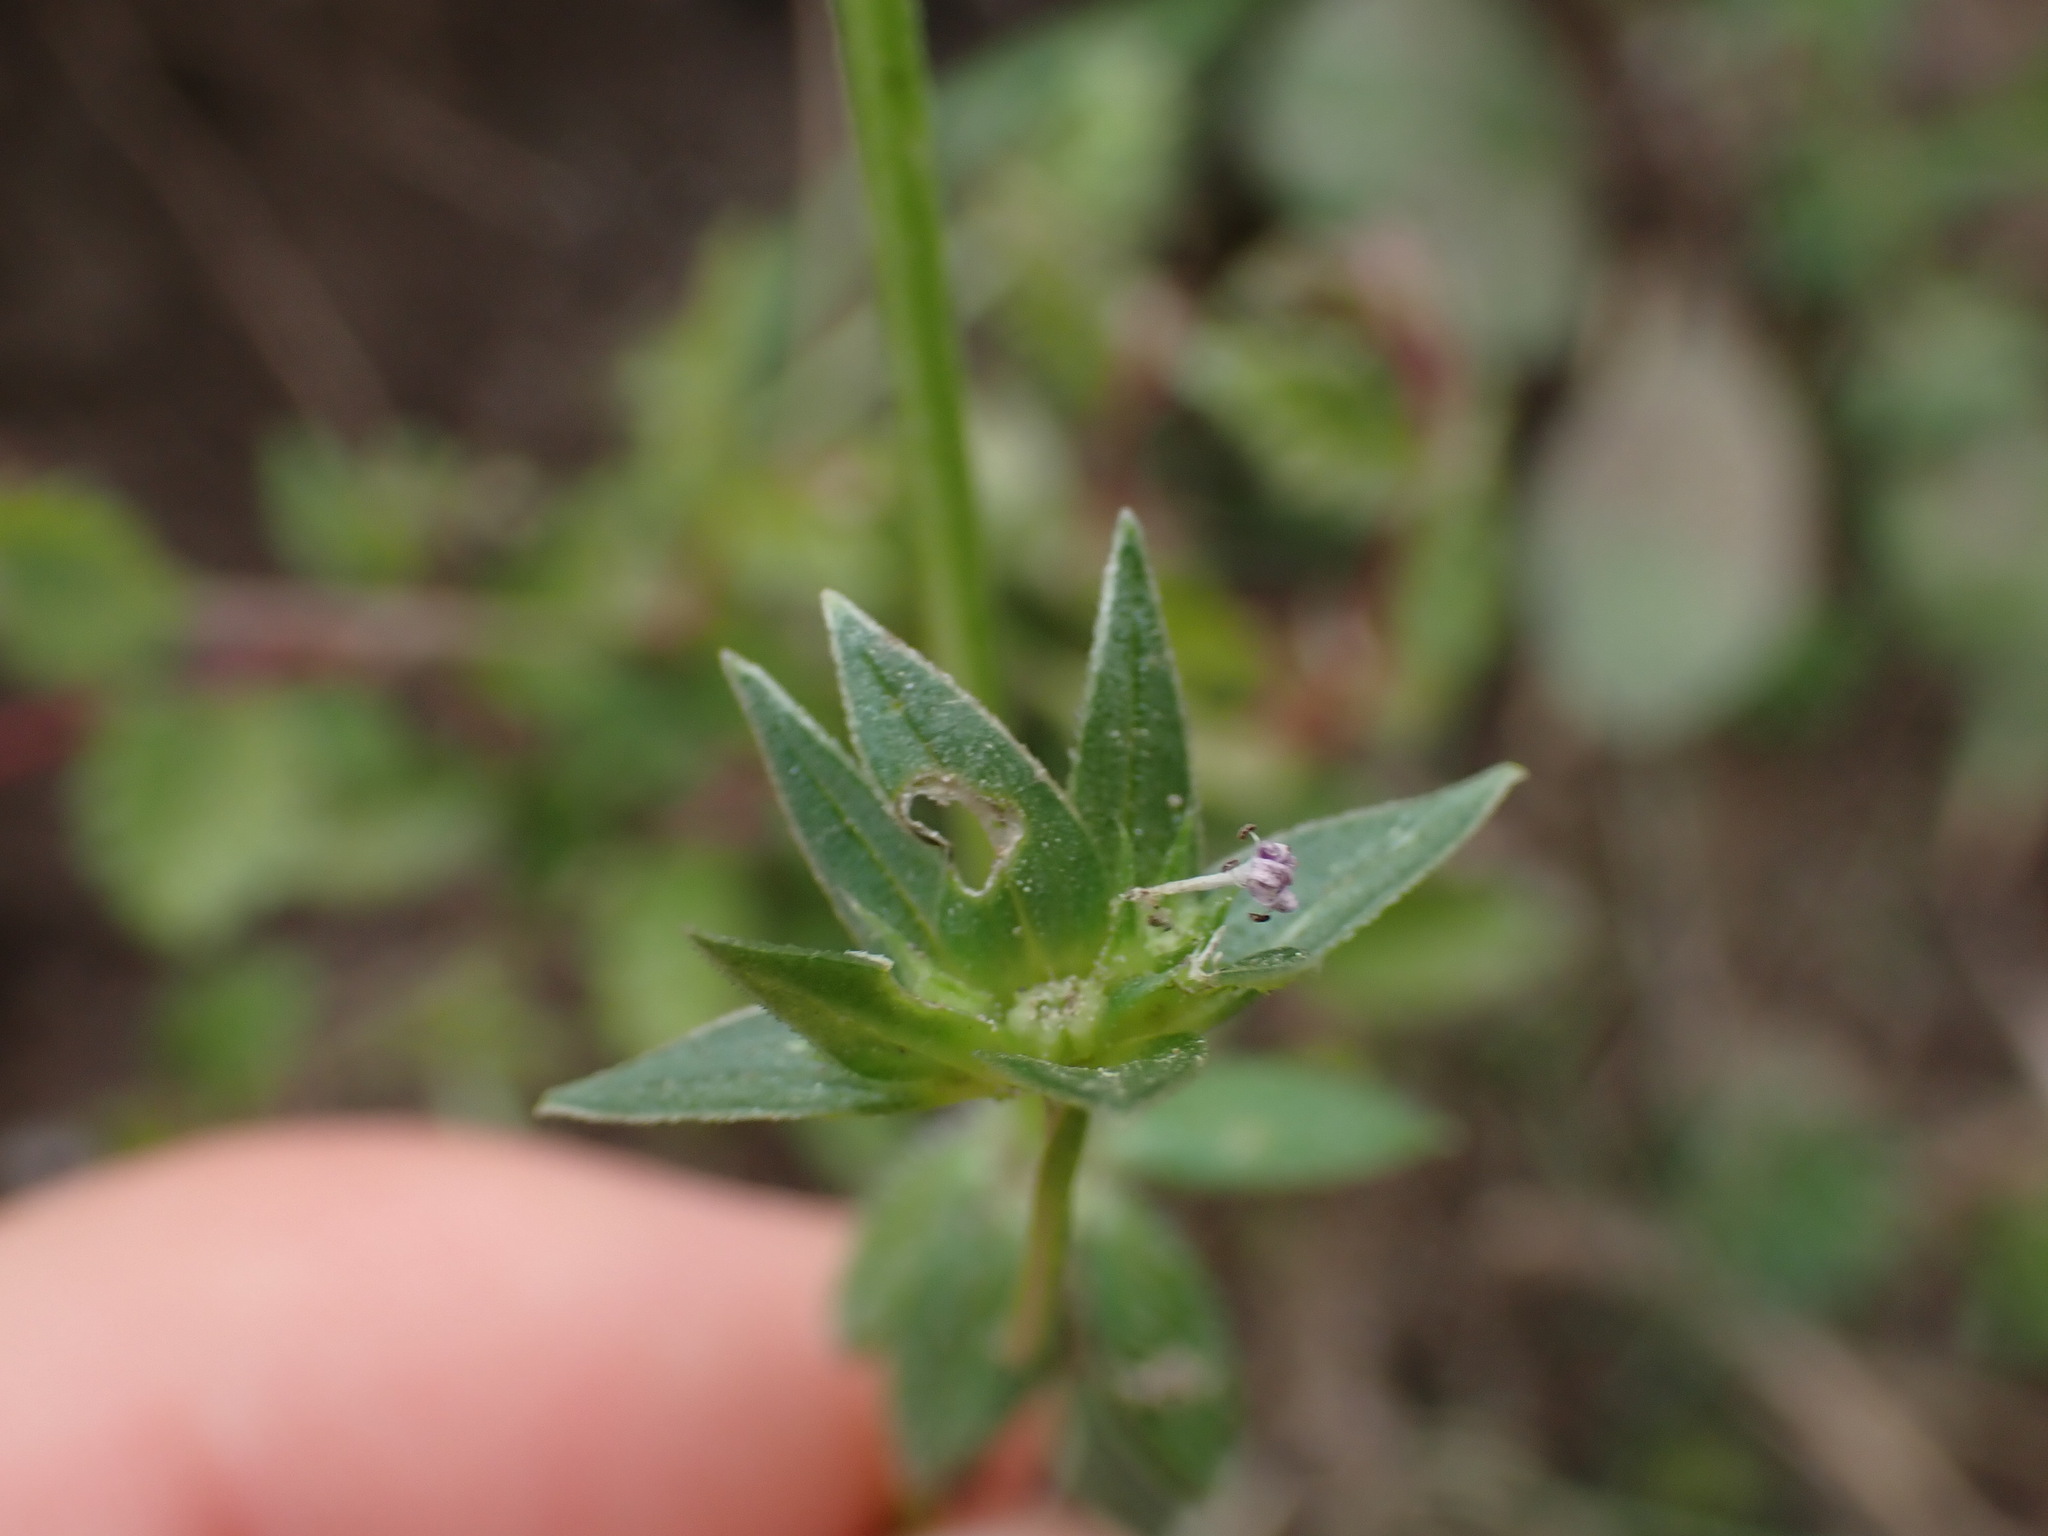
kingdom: Plantae
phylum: Tracheophyta
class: Magnoliopsida
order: Gentianales
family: Rubiaceae
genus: Sherardia
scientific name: Sherardia arvensis
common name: Field madder
